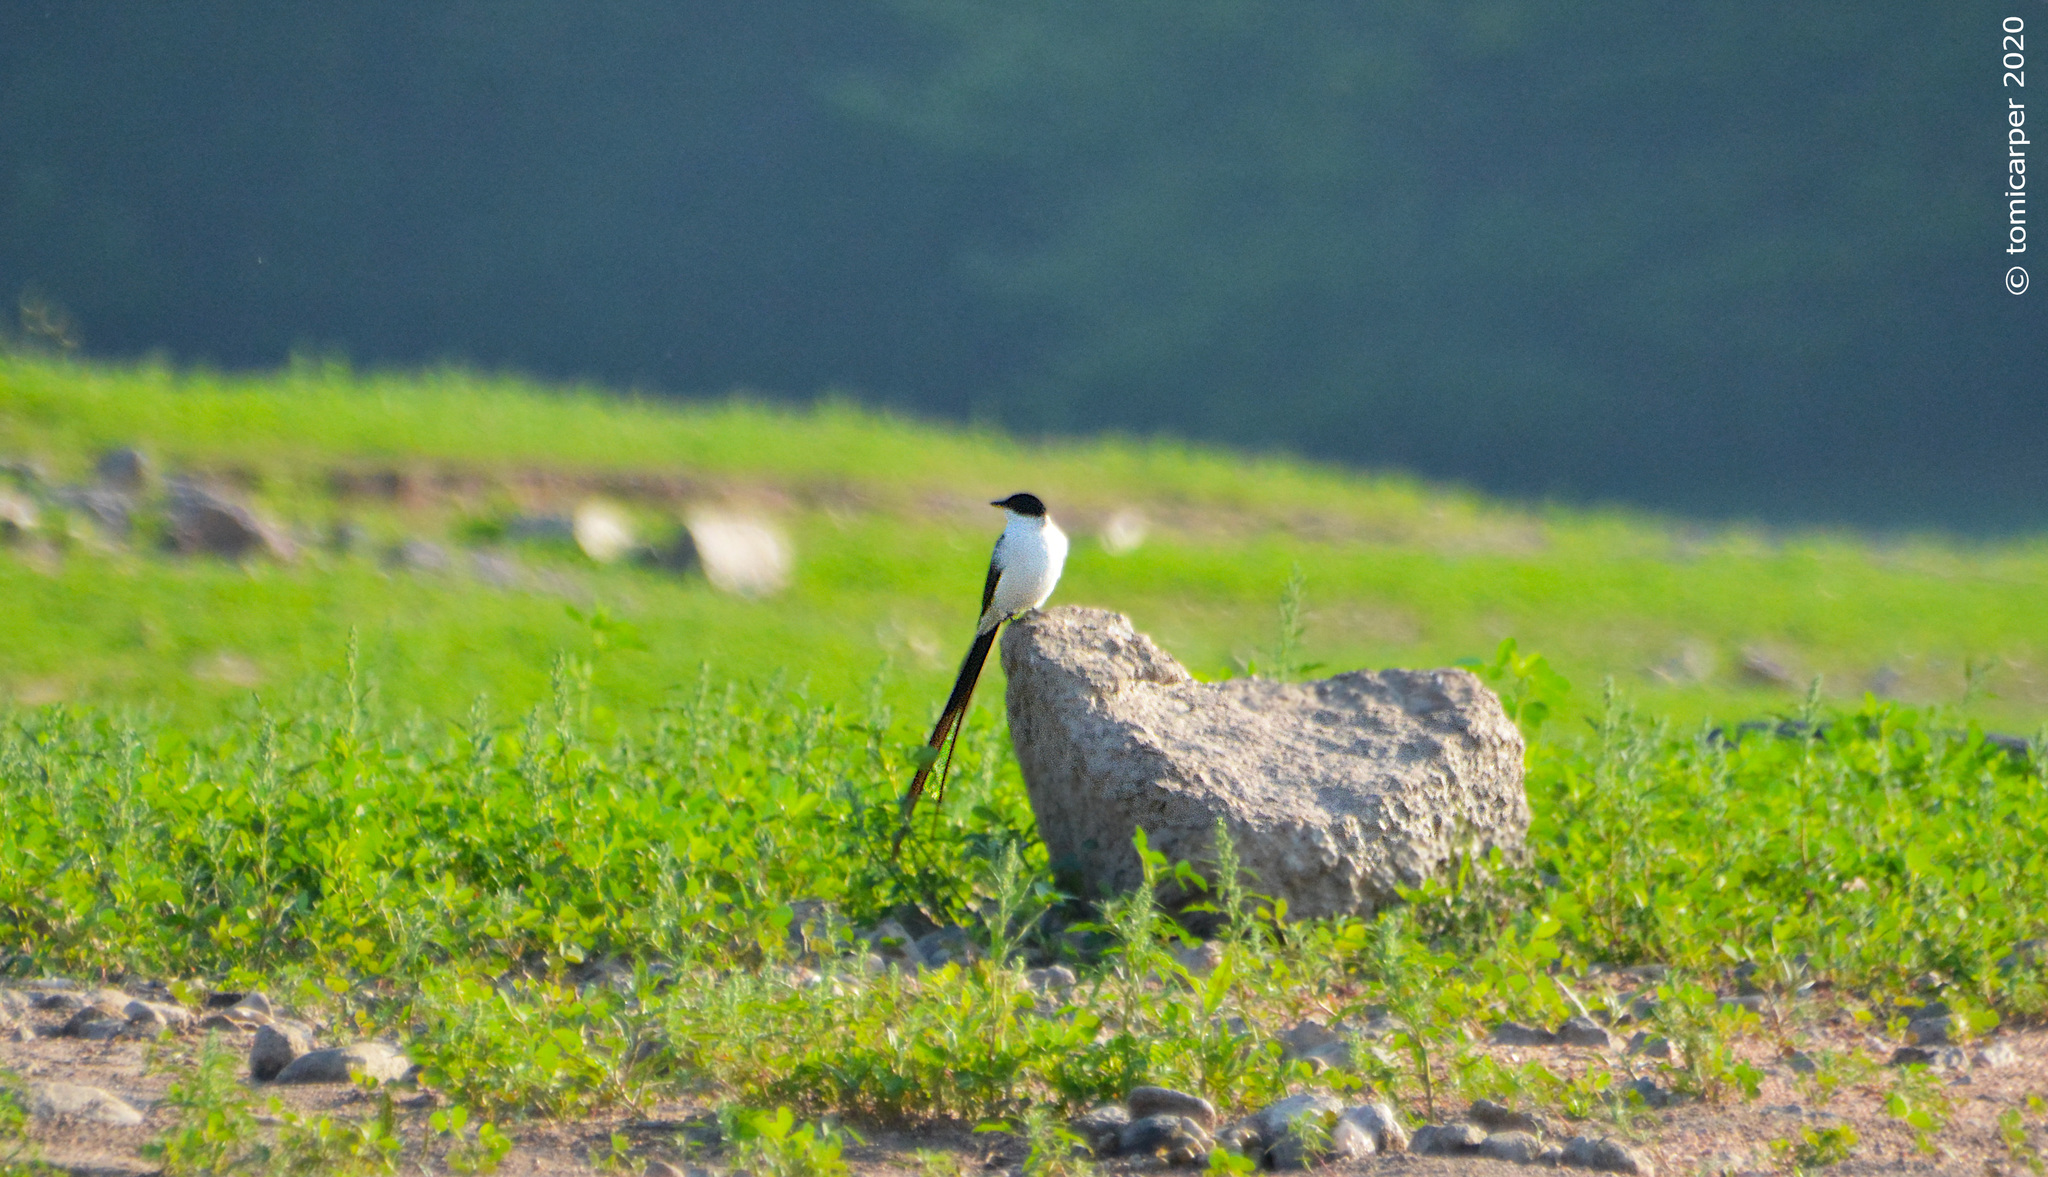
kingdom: Animalia
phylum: Chordata
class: Aves
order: Passeriformes
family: Tyrannidae
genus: Tyrannus
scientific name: Tyrannus savana
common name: Fork-tailed flycatcher
